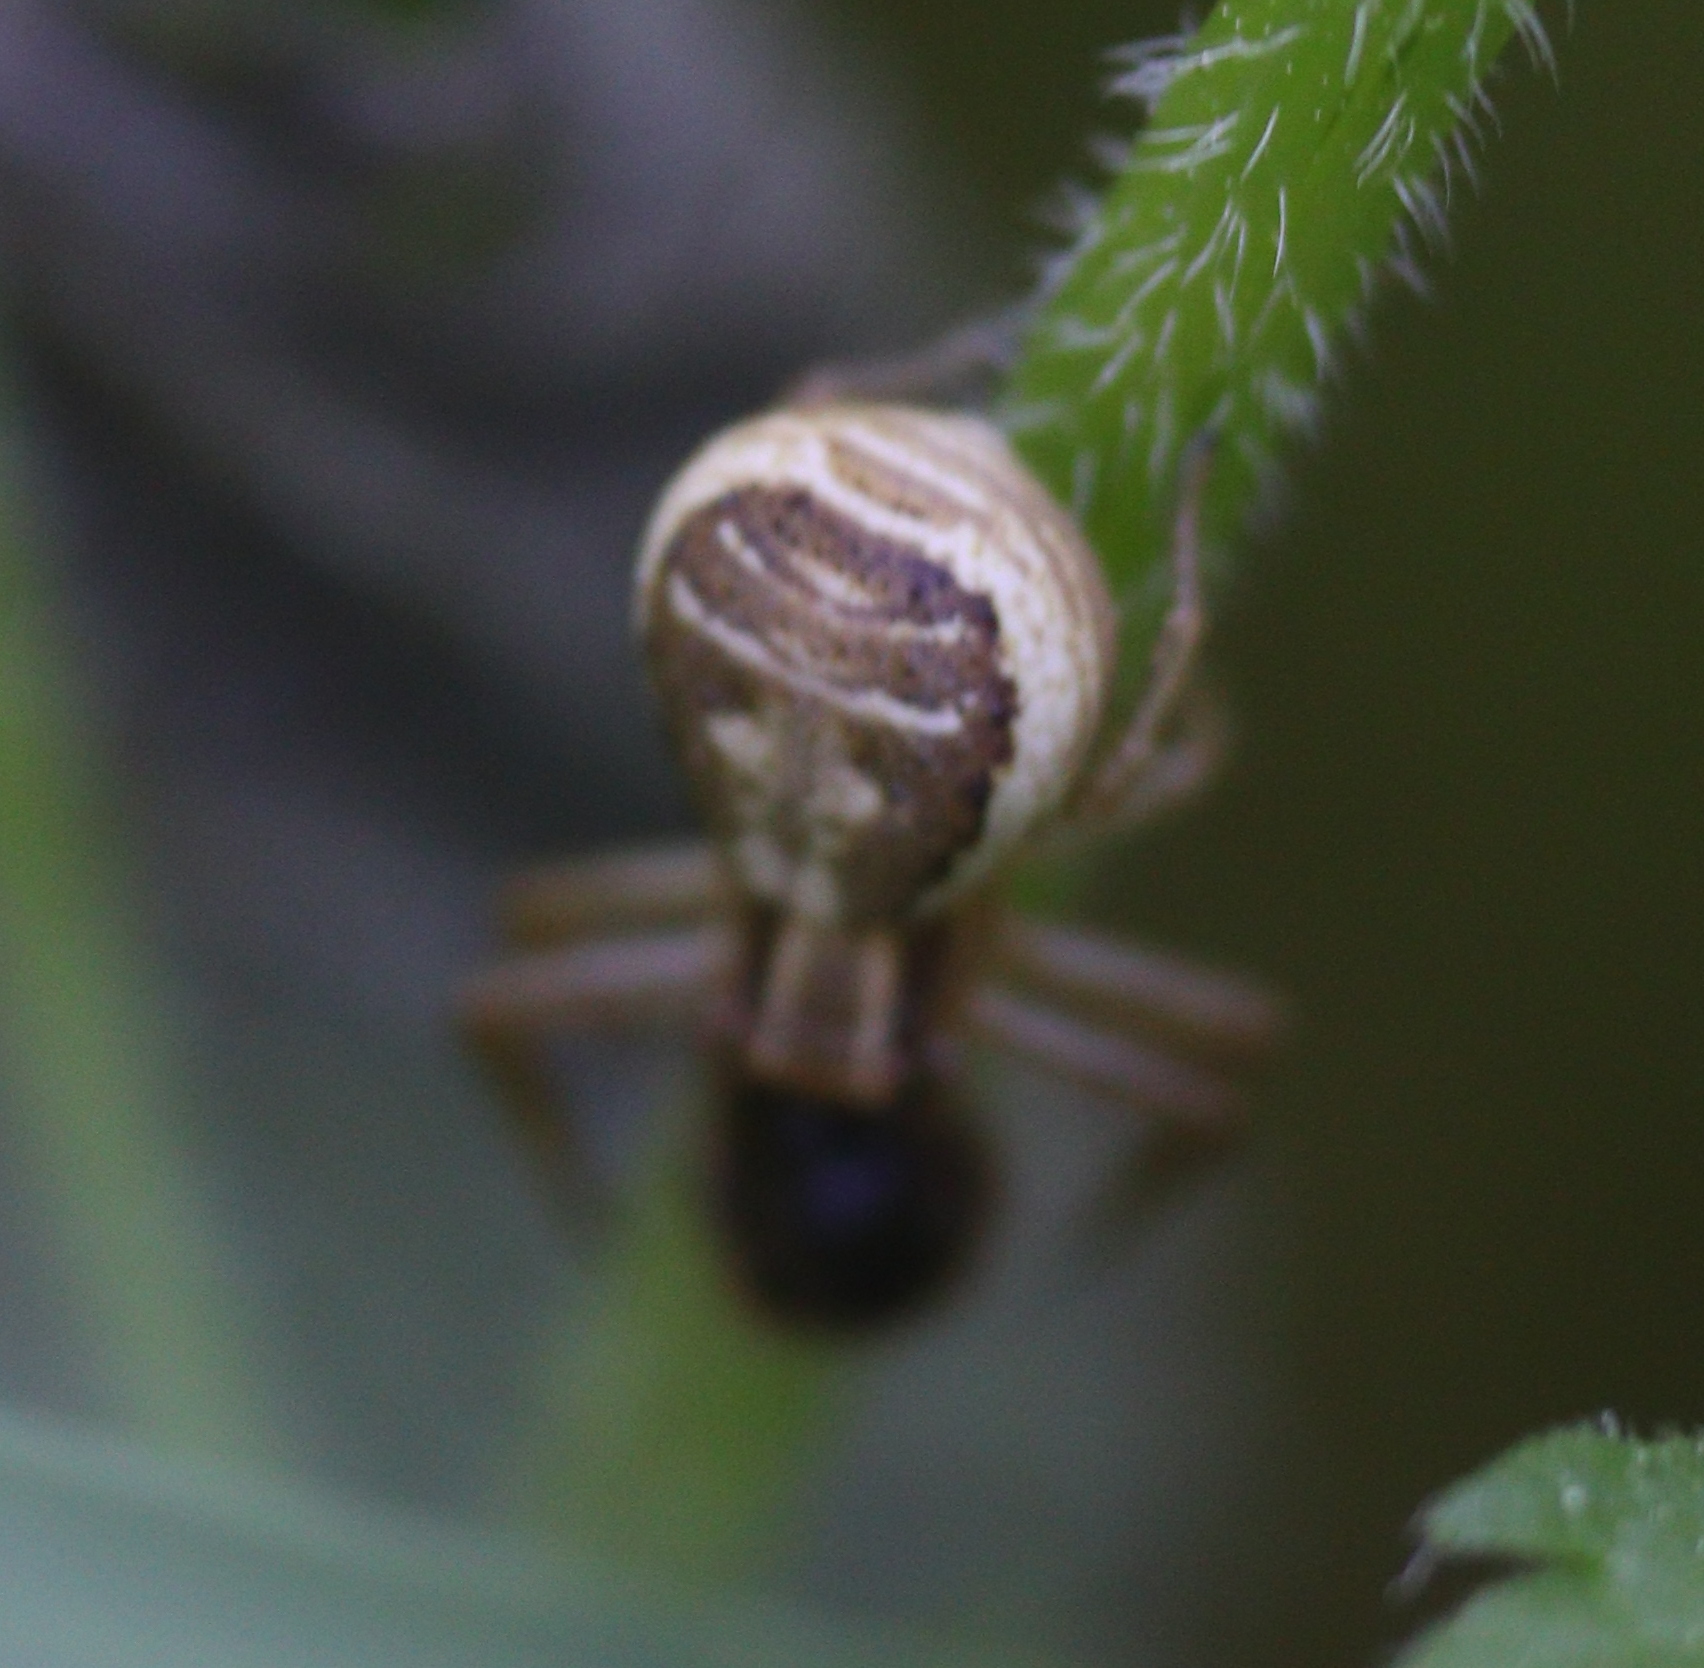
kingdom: Animalia
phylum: Arthropoda
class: Arachnida
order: Araneae
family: Thomisidae
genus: Xysticus
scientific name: Xysticus ulmi
